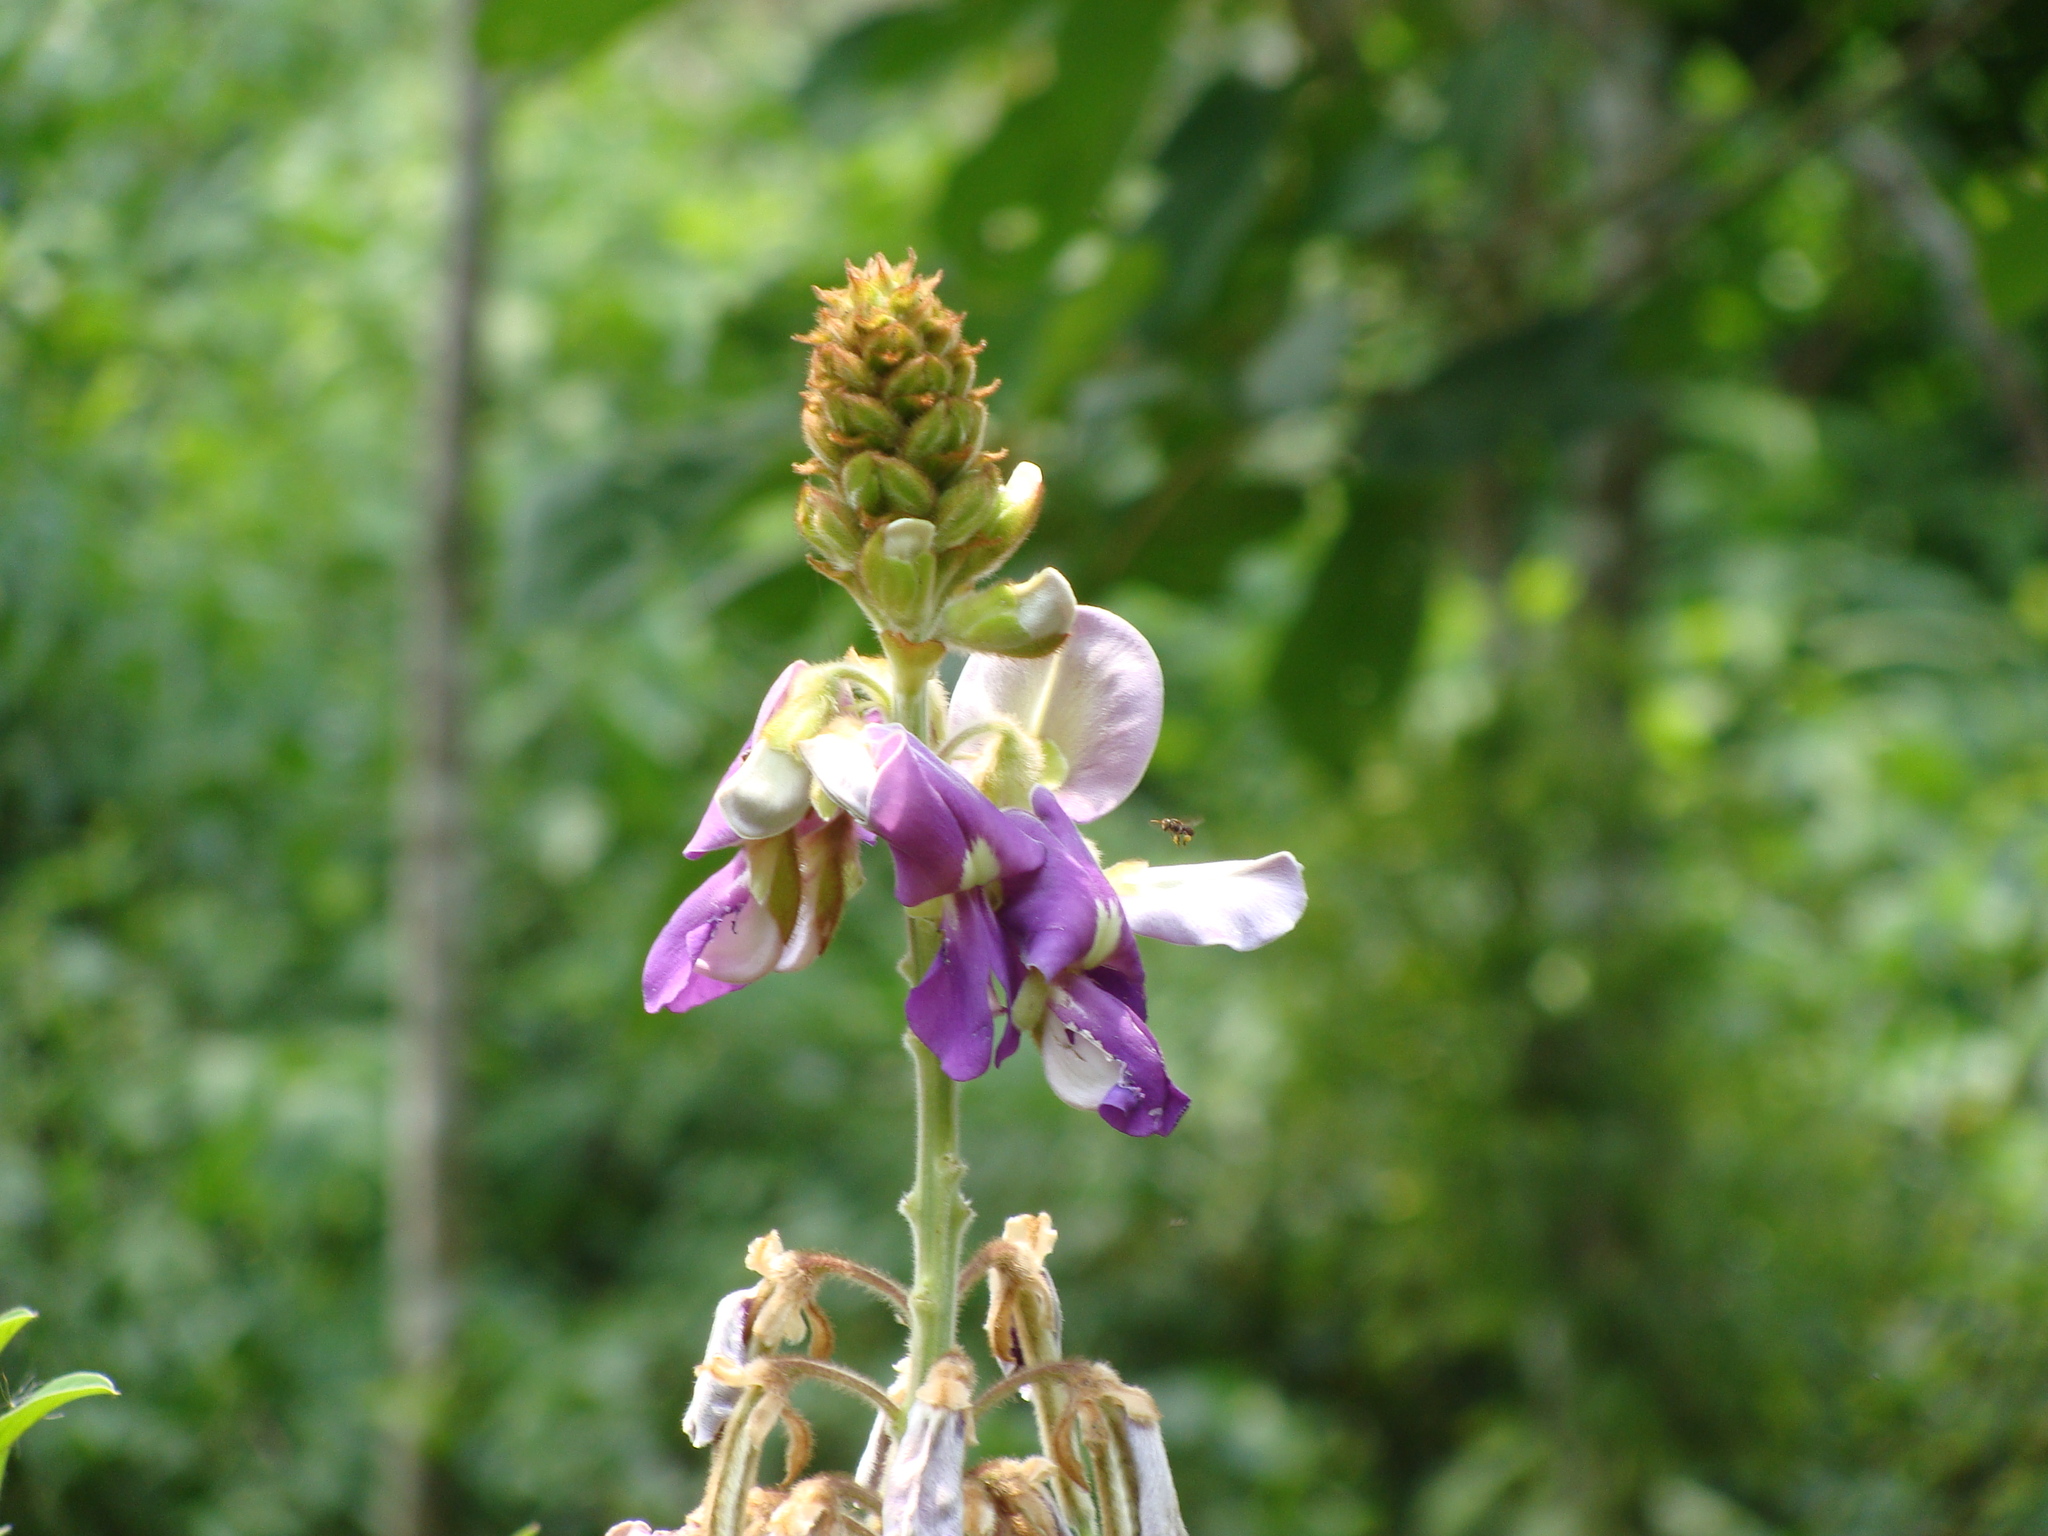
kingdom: Plantae
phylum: Tracheophyta
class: Magnoliopsida
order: Fabales
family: Fabaceae
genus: Tephrosia
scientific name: Tephrosia vogelii
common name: Vogel tephrosia
